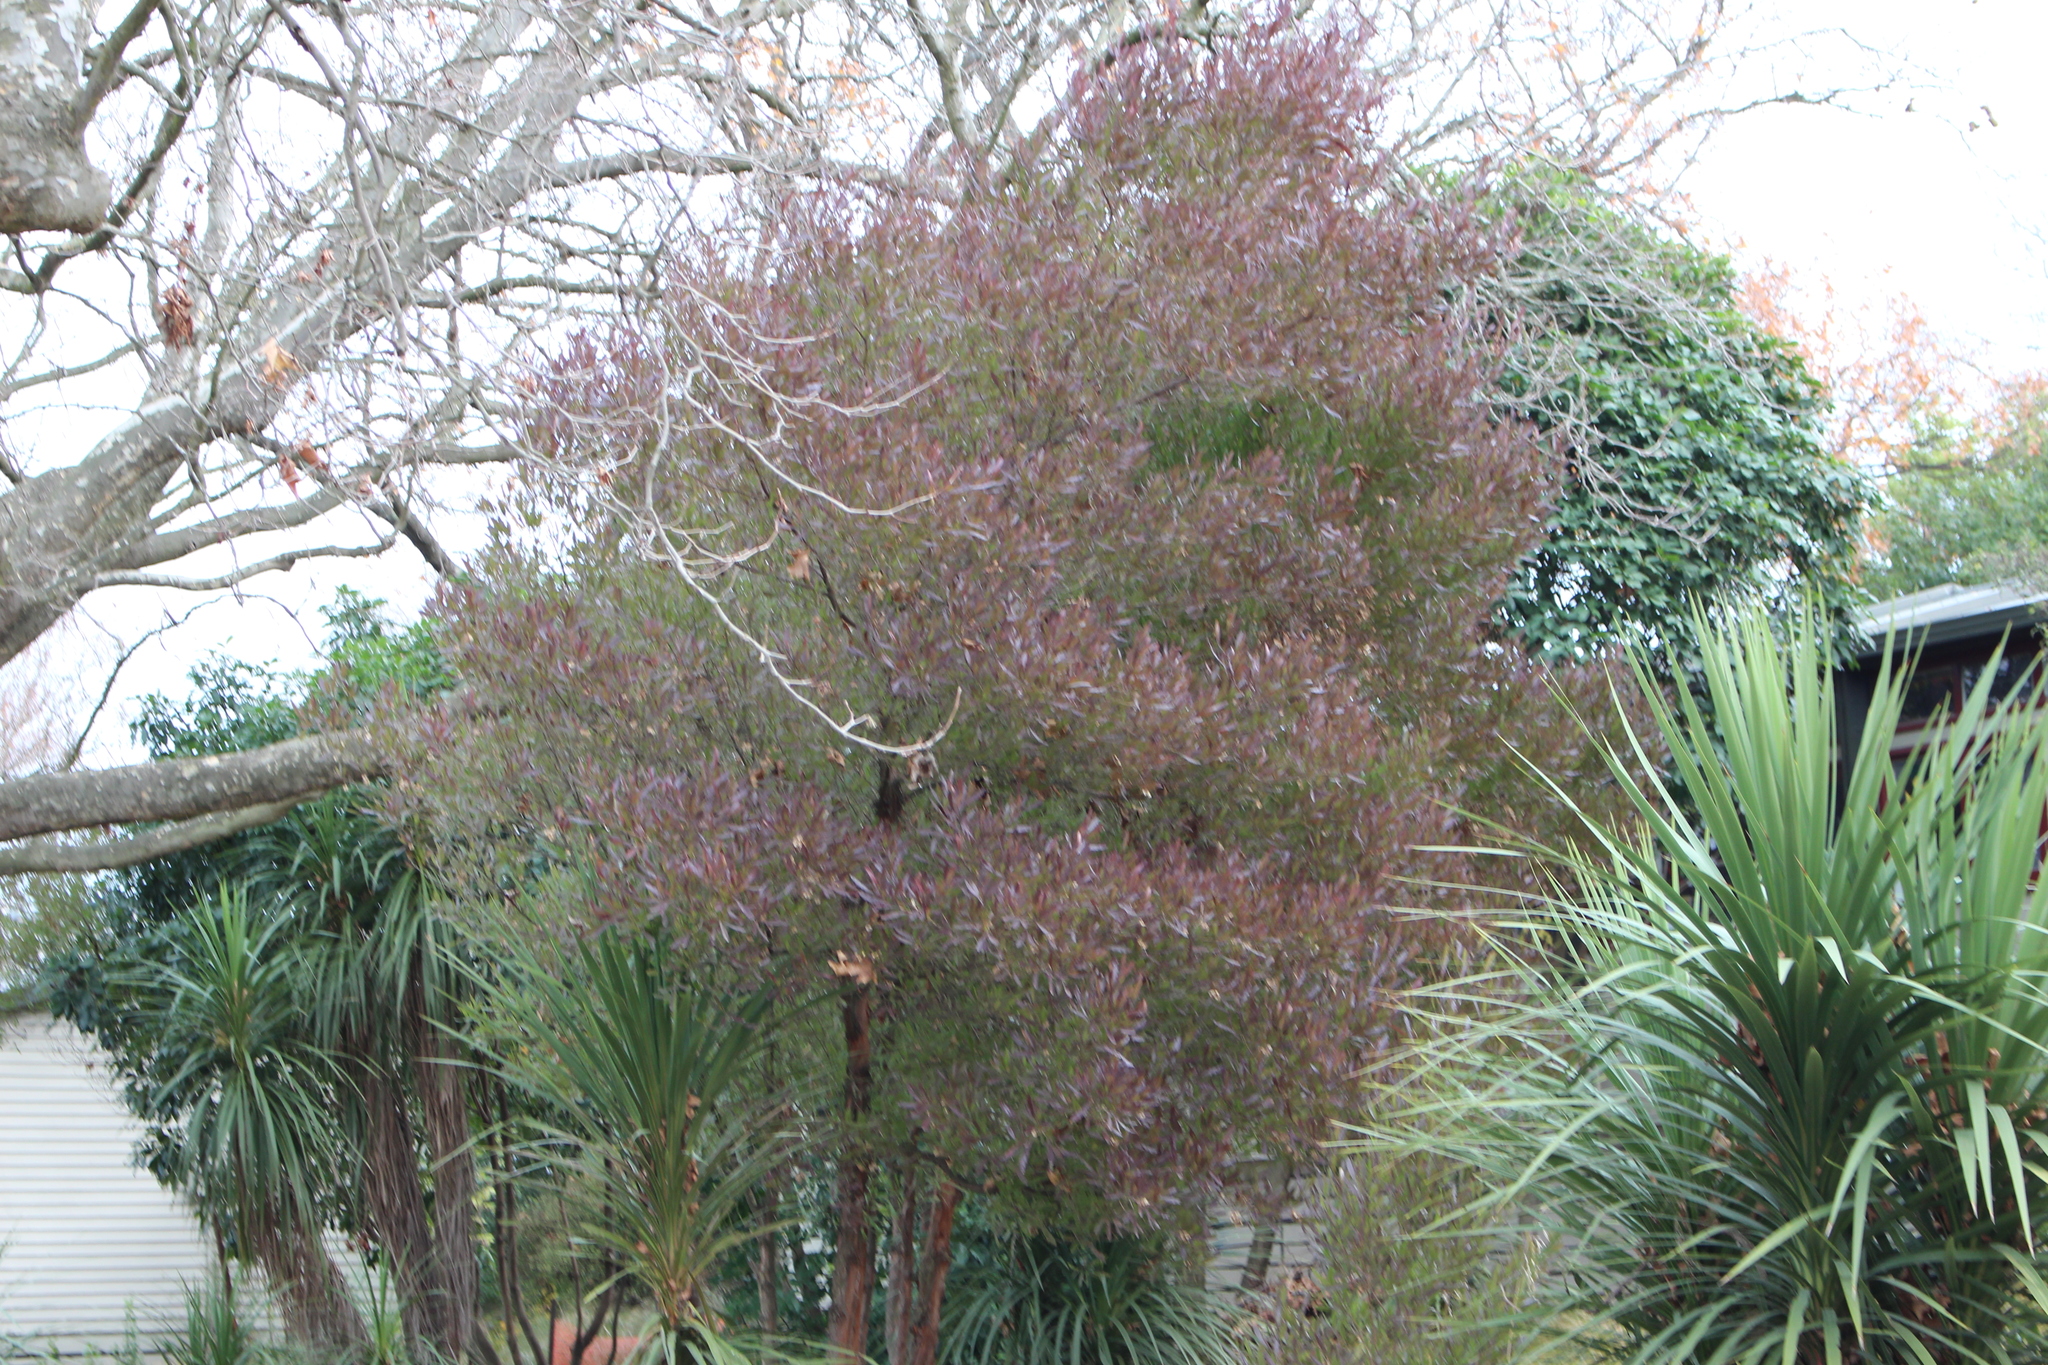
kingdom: Plantae
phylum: Tracheophyta
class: Magnoliopsida
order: Sapindales
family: Sapindaceae
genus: Dodonaea
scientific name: Dodonaea viscosa
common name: Hopbush
